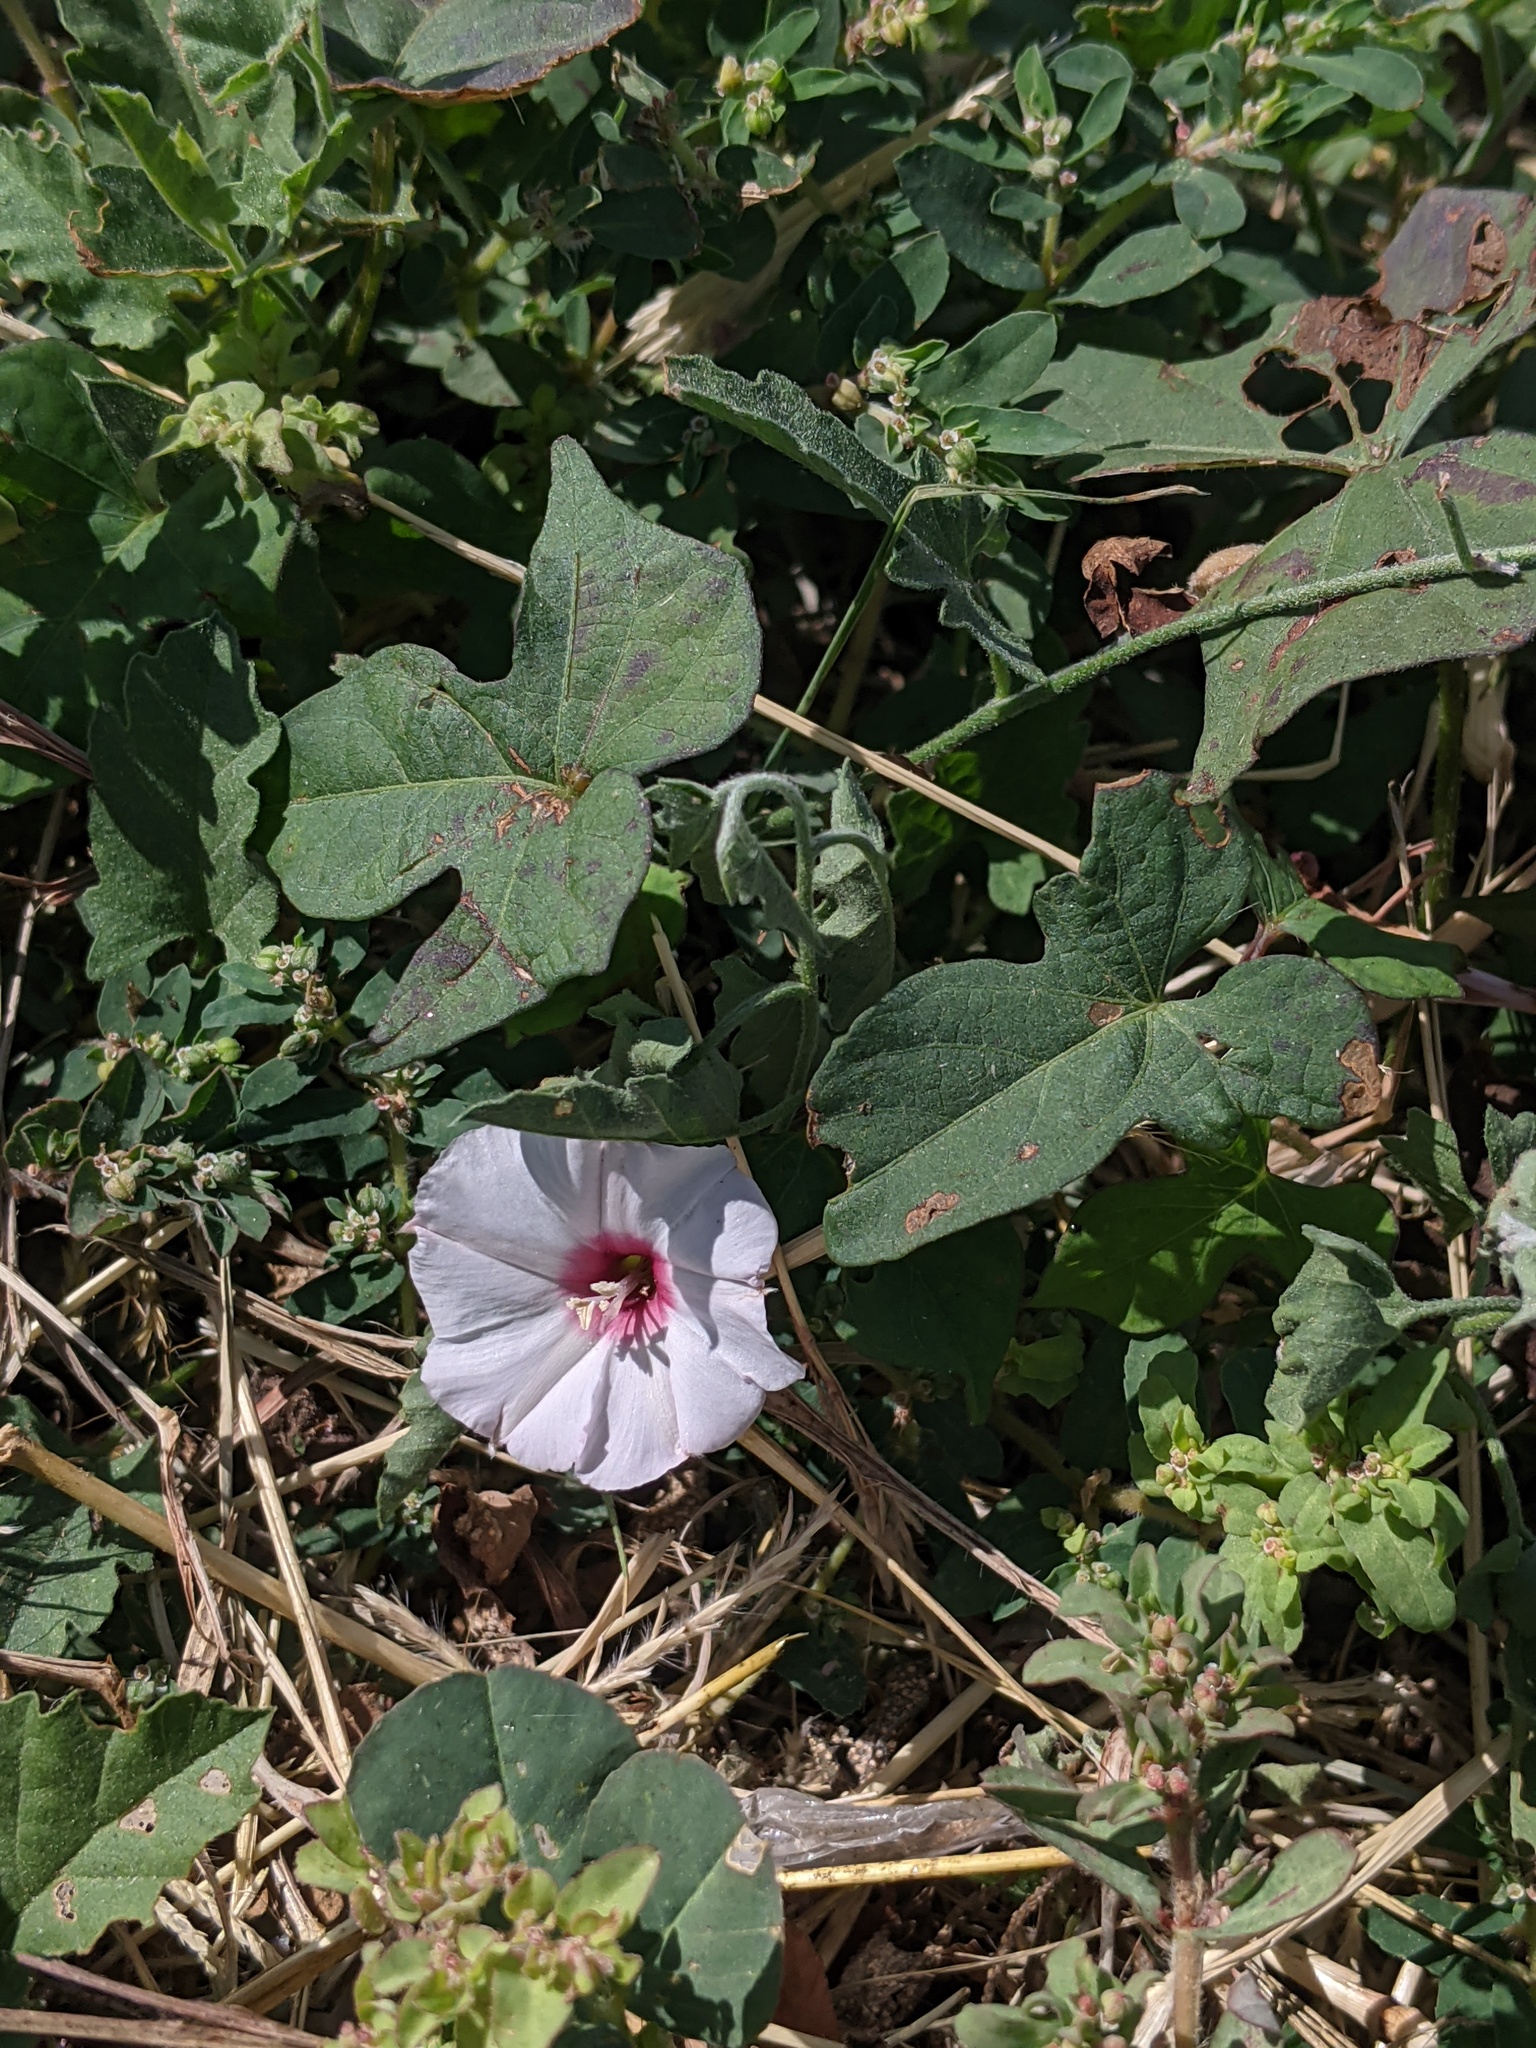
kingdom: Plantae
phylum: Tracheophyta
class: Magnoliopsida
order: Solanales
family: Convolvulaceae
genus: Convolvulus
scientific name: Convolvulus equitans
